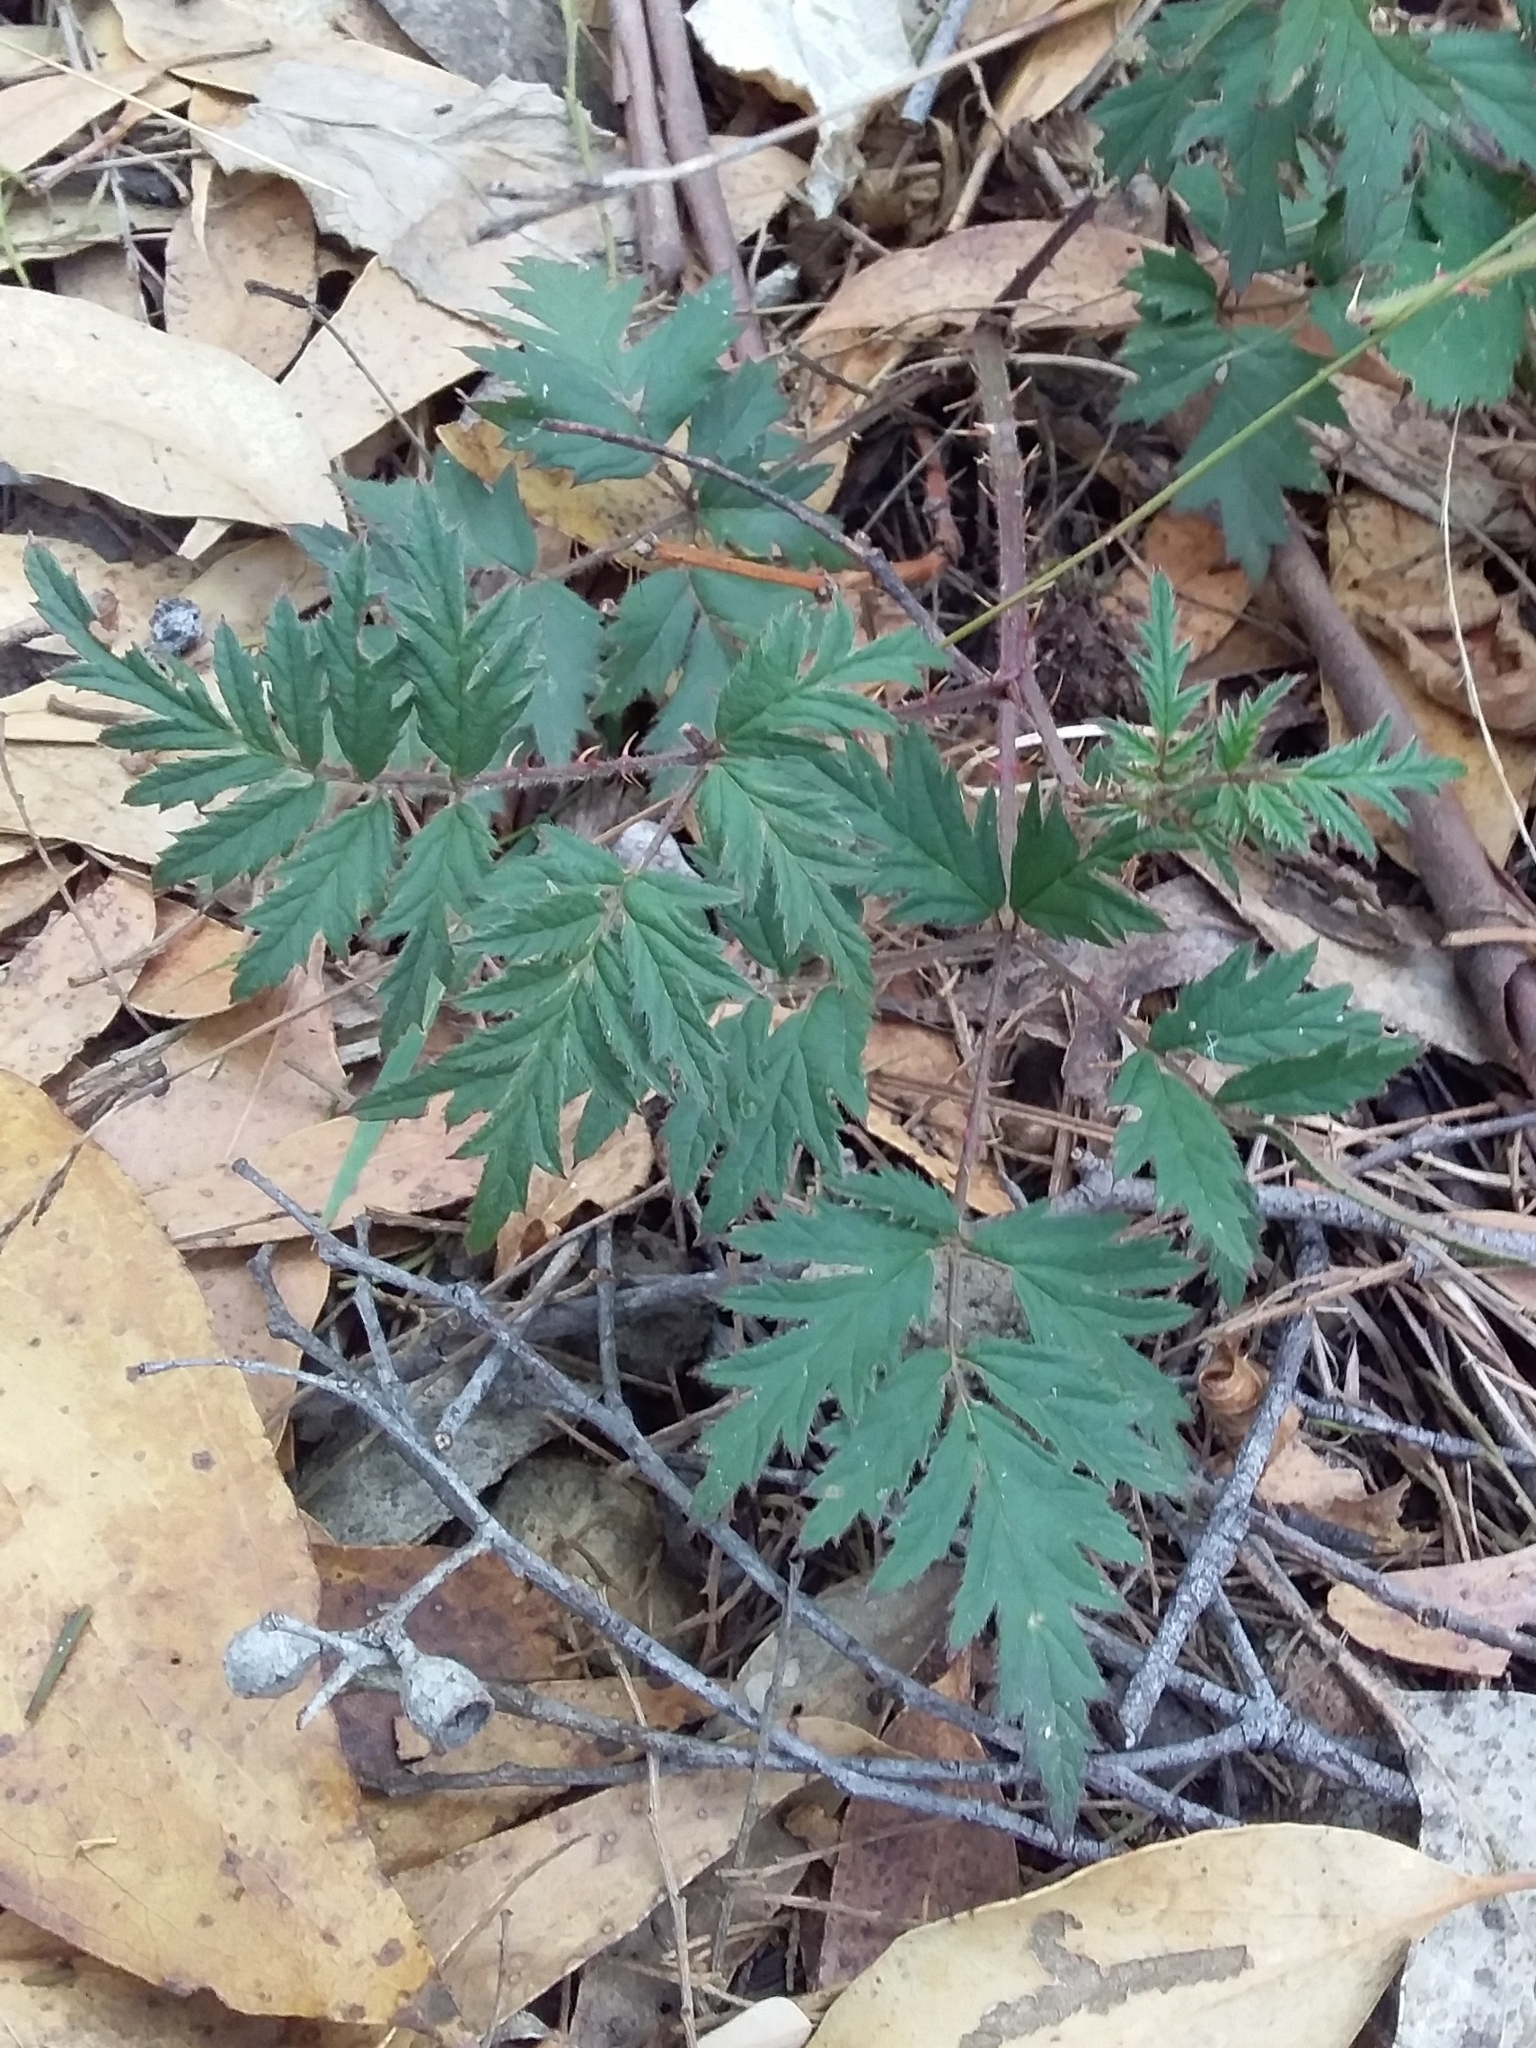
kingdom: Plantae
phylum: Tracheophyta
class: Magnoliopsida
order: Rosales
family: Rosaceae
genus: Rubus
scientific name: Rubus laciniatus
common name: Evergreen blackberry
